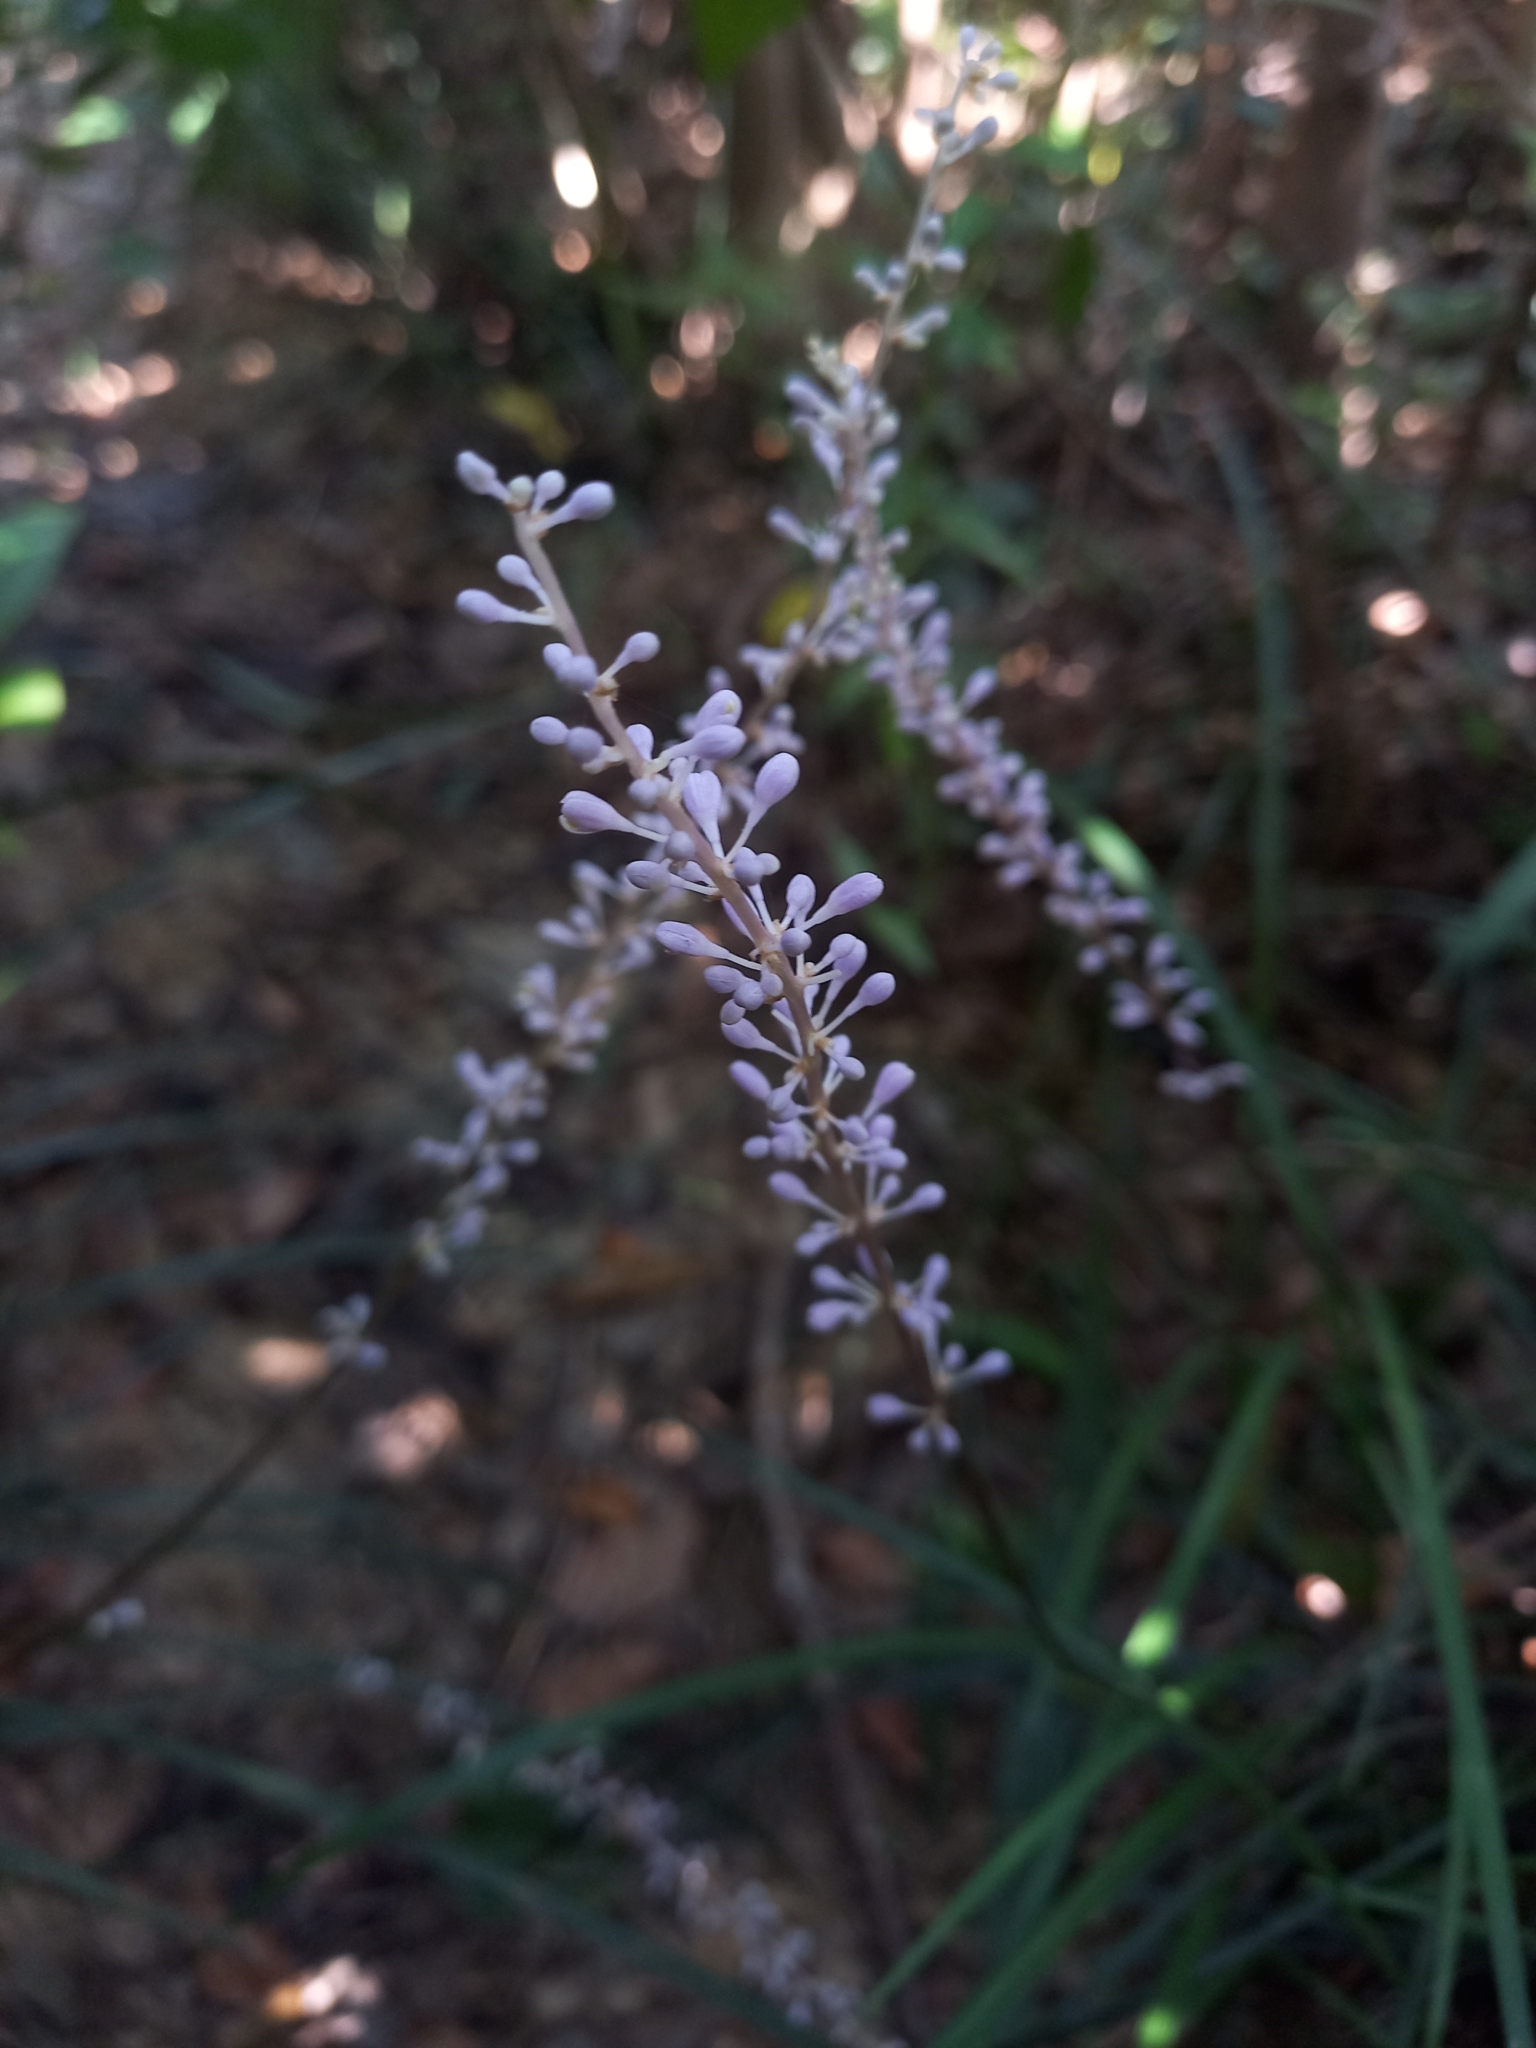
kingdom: Plantae
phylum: Tracheophyta
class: Liliopsida
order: Asparagales
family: Asparagaceae
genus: Liriope
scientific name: Liriope spicata
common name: Creeping liriope
